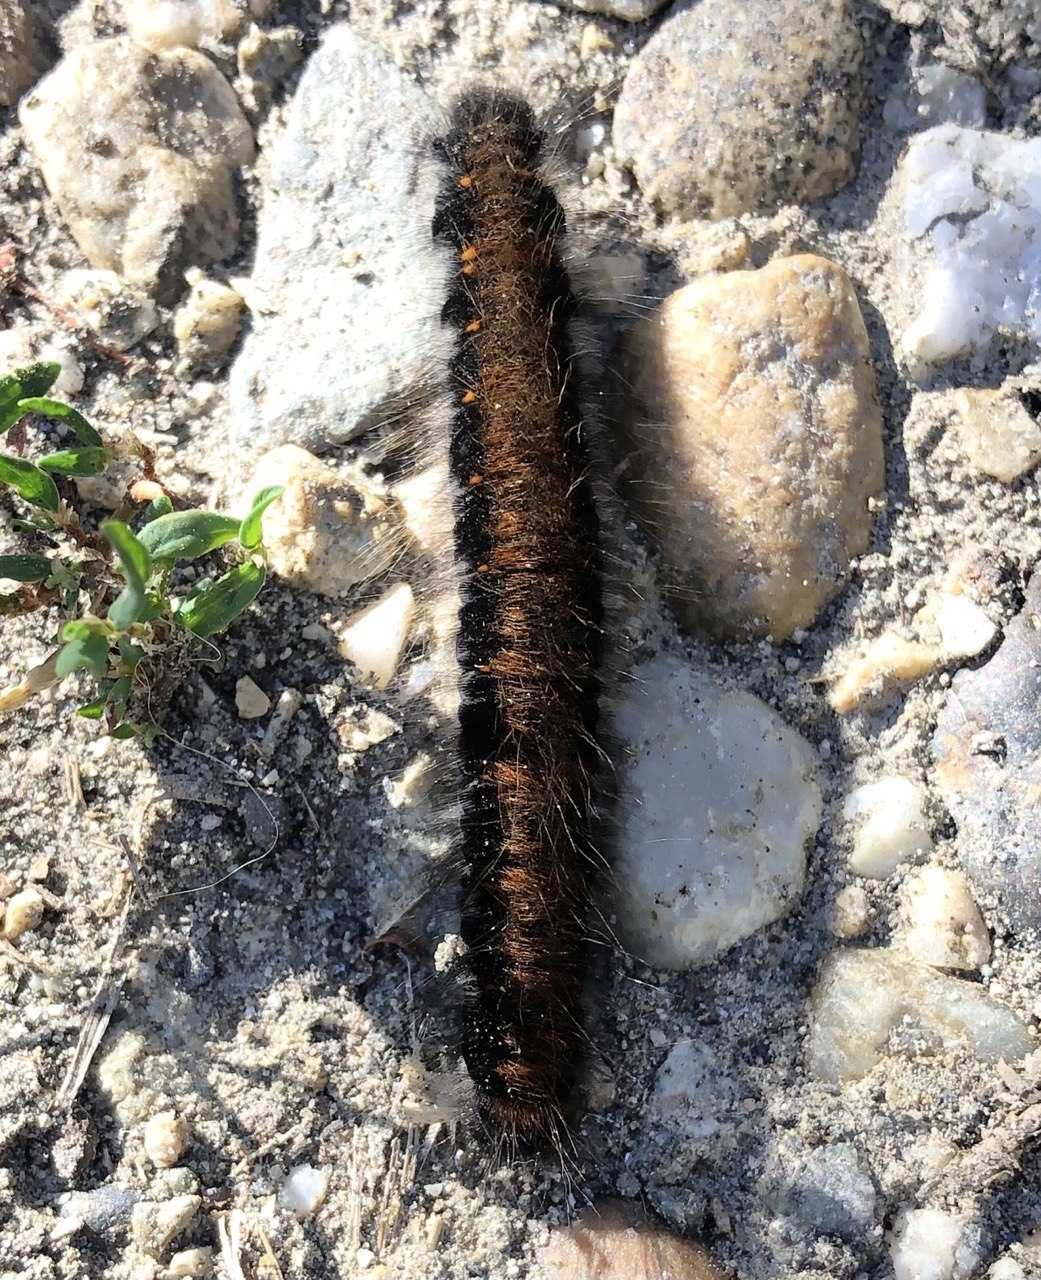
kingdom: Animalia
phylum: Arthropoda
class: Insecta
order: Lepidoptera
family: Lasiocampidae
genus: Macrothylacia
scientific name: Macrothylacia rubi
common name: Fox moth
